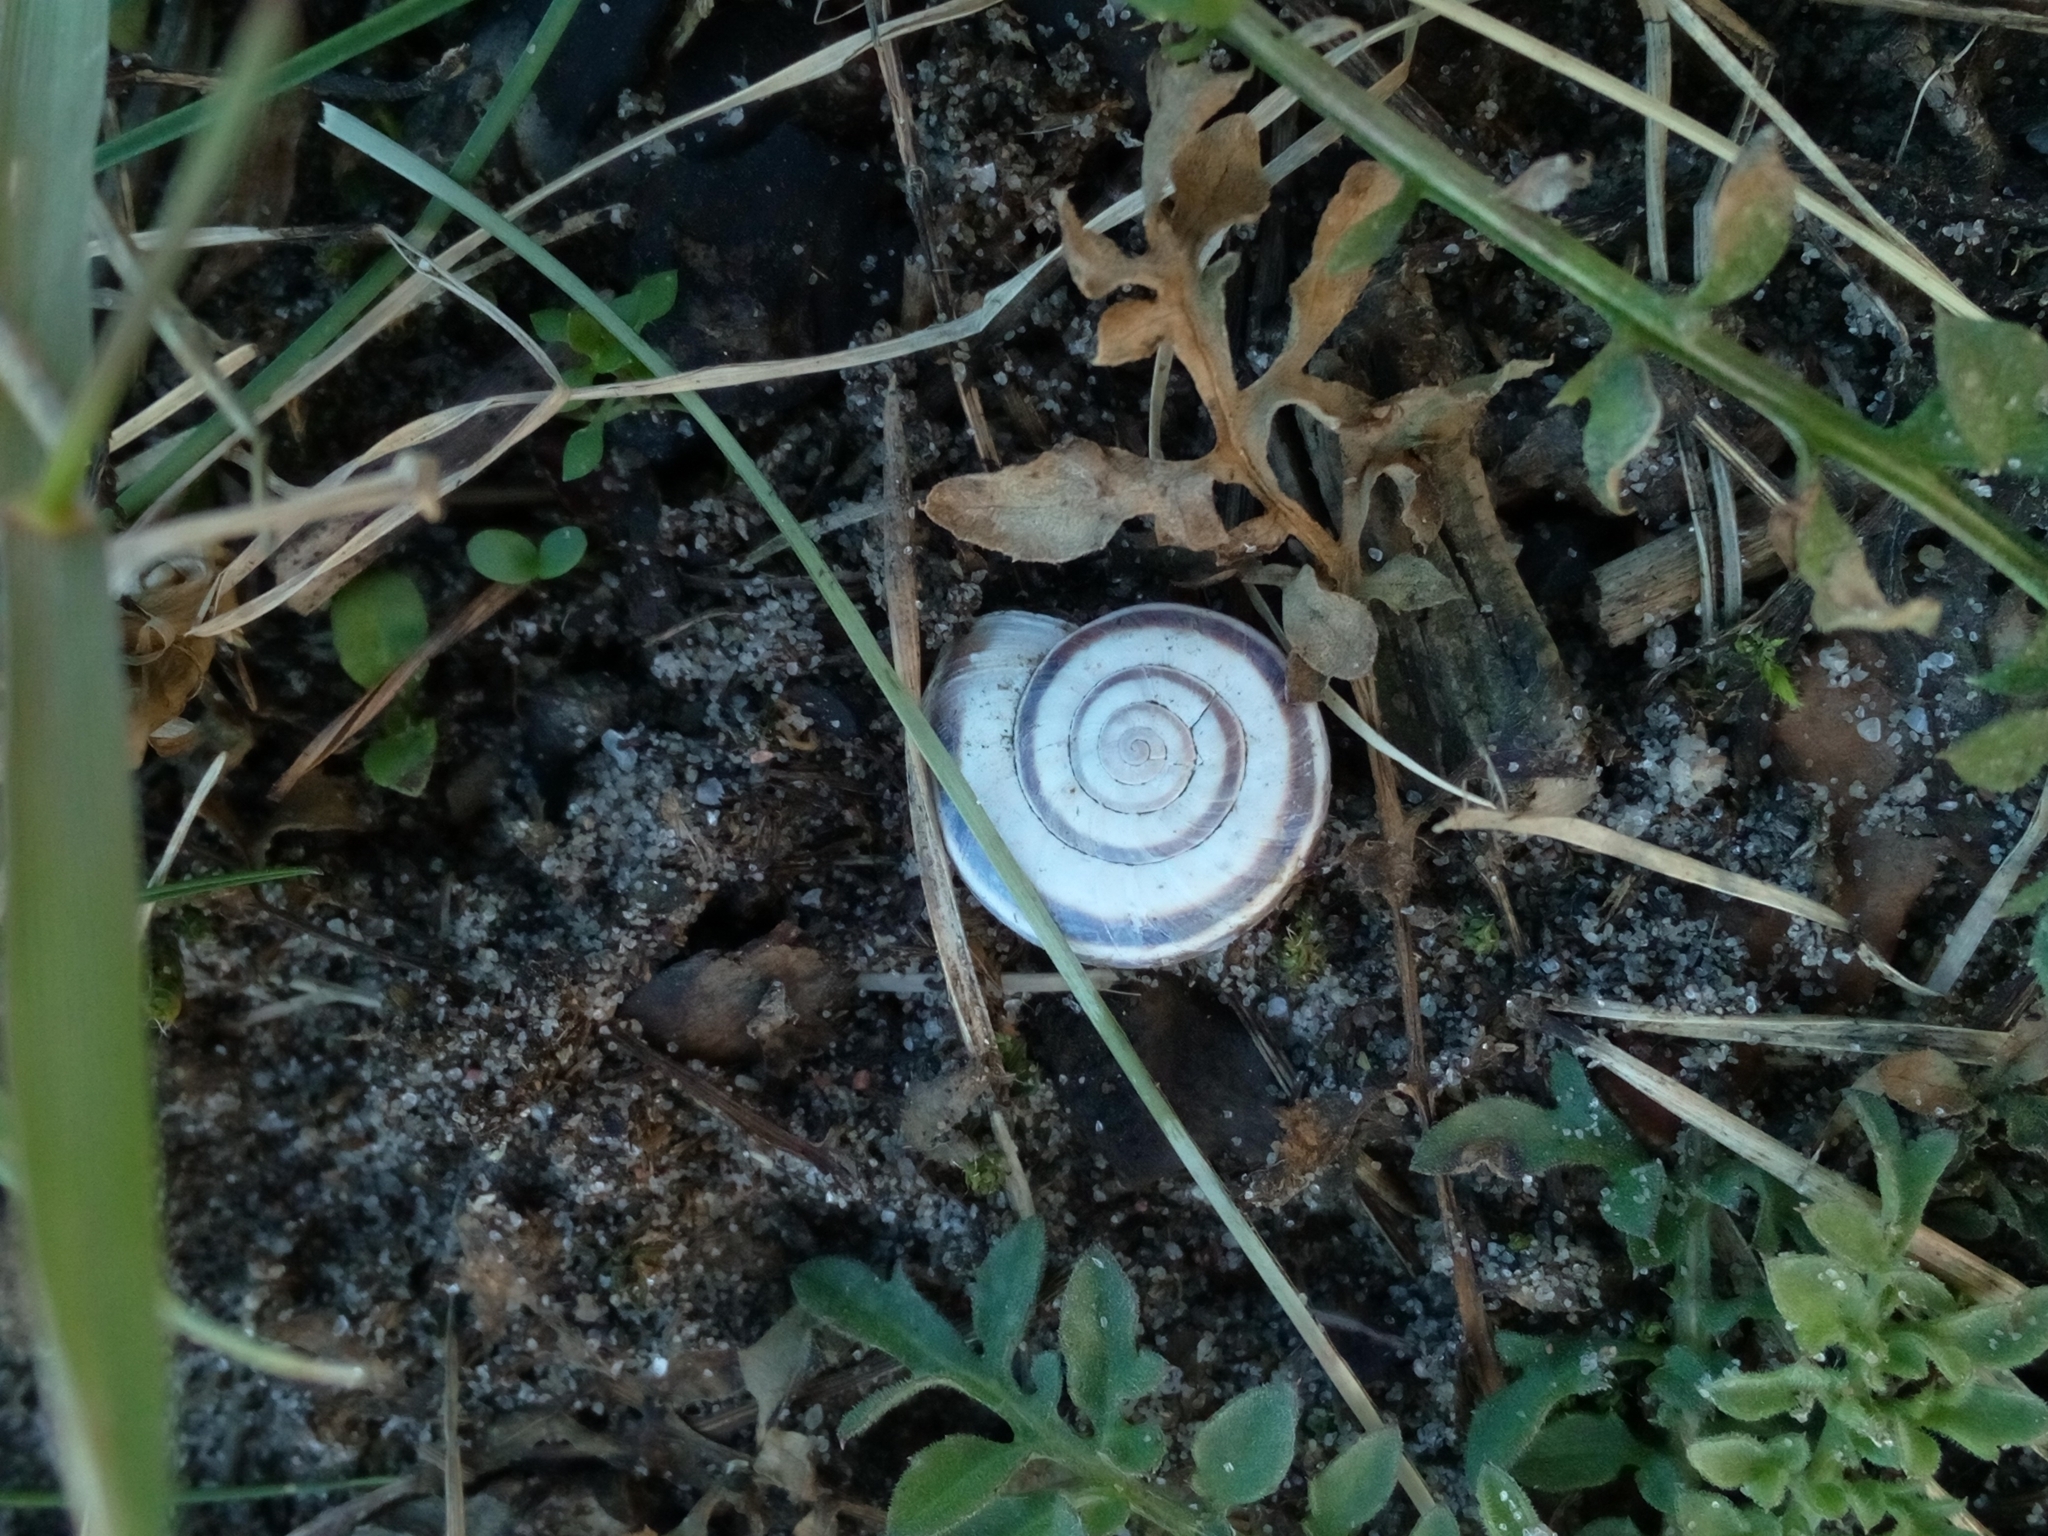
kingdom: Animalia
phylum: Mollusca
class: Gastropoda
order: Stylommatophora
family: Geomitridae
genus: Xerolenta
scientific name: Xerolenta obvia
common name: White heath snail
